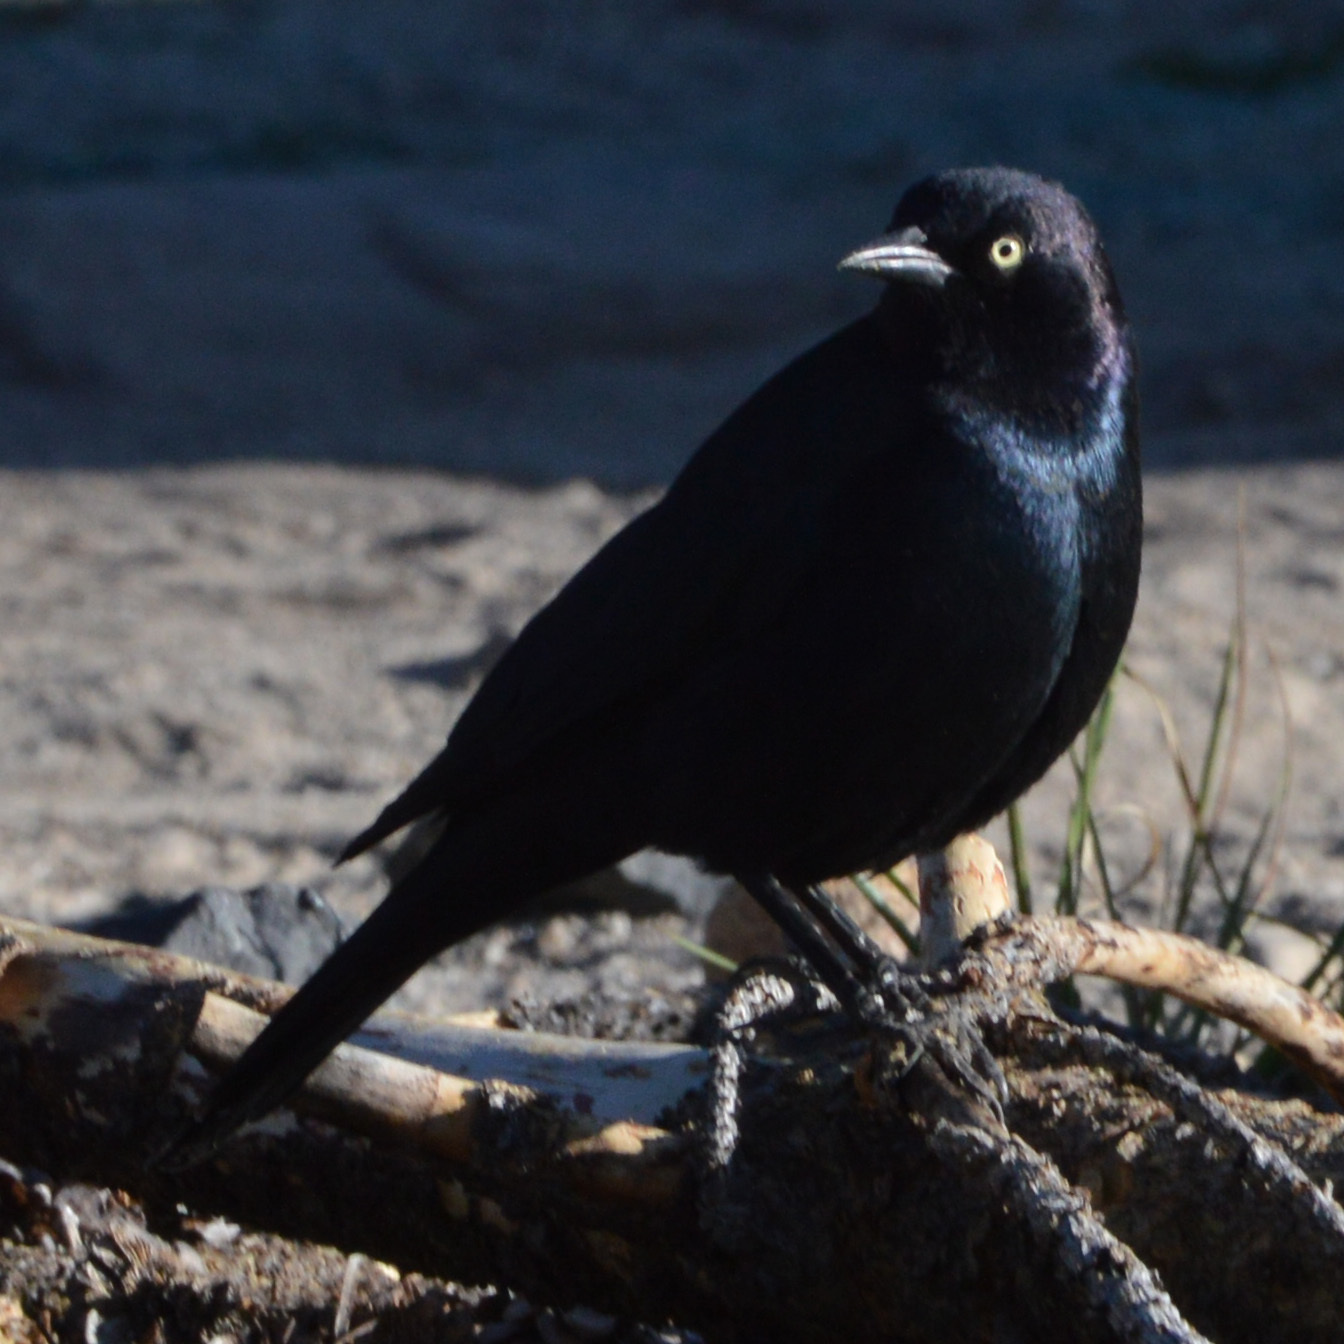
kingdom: Animalia
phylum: Chordata
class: Aves
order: Passeriformes
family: Icteridae
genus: Euphagus
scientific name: Euphagus cyanocephalus
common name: Brewer's blackbird
